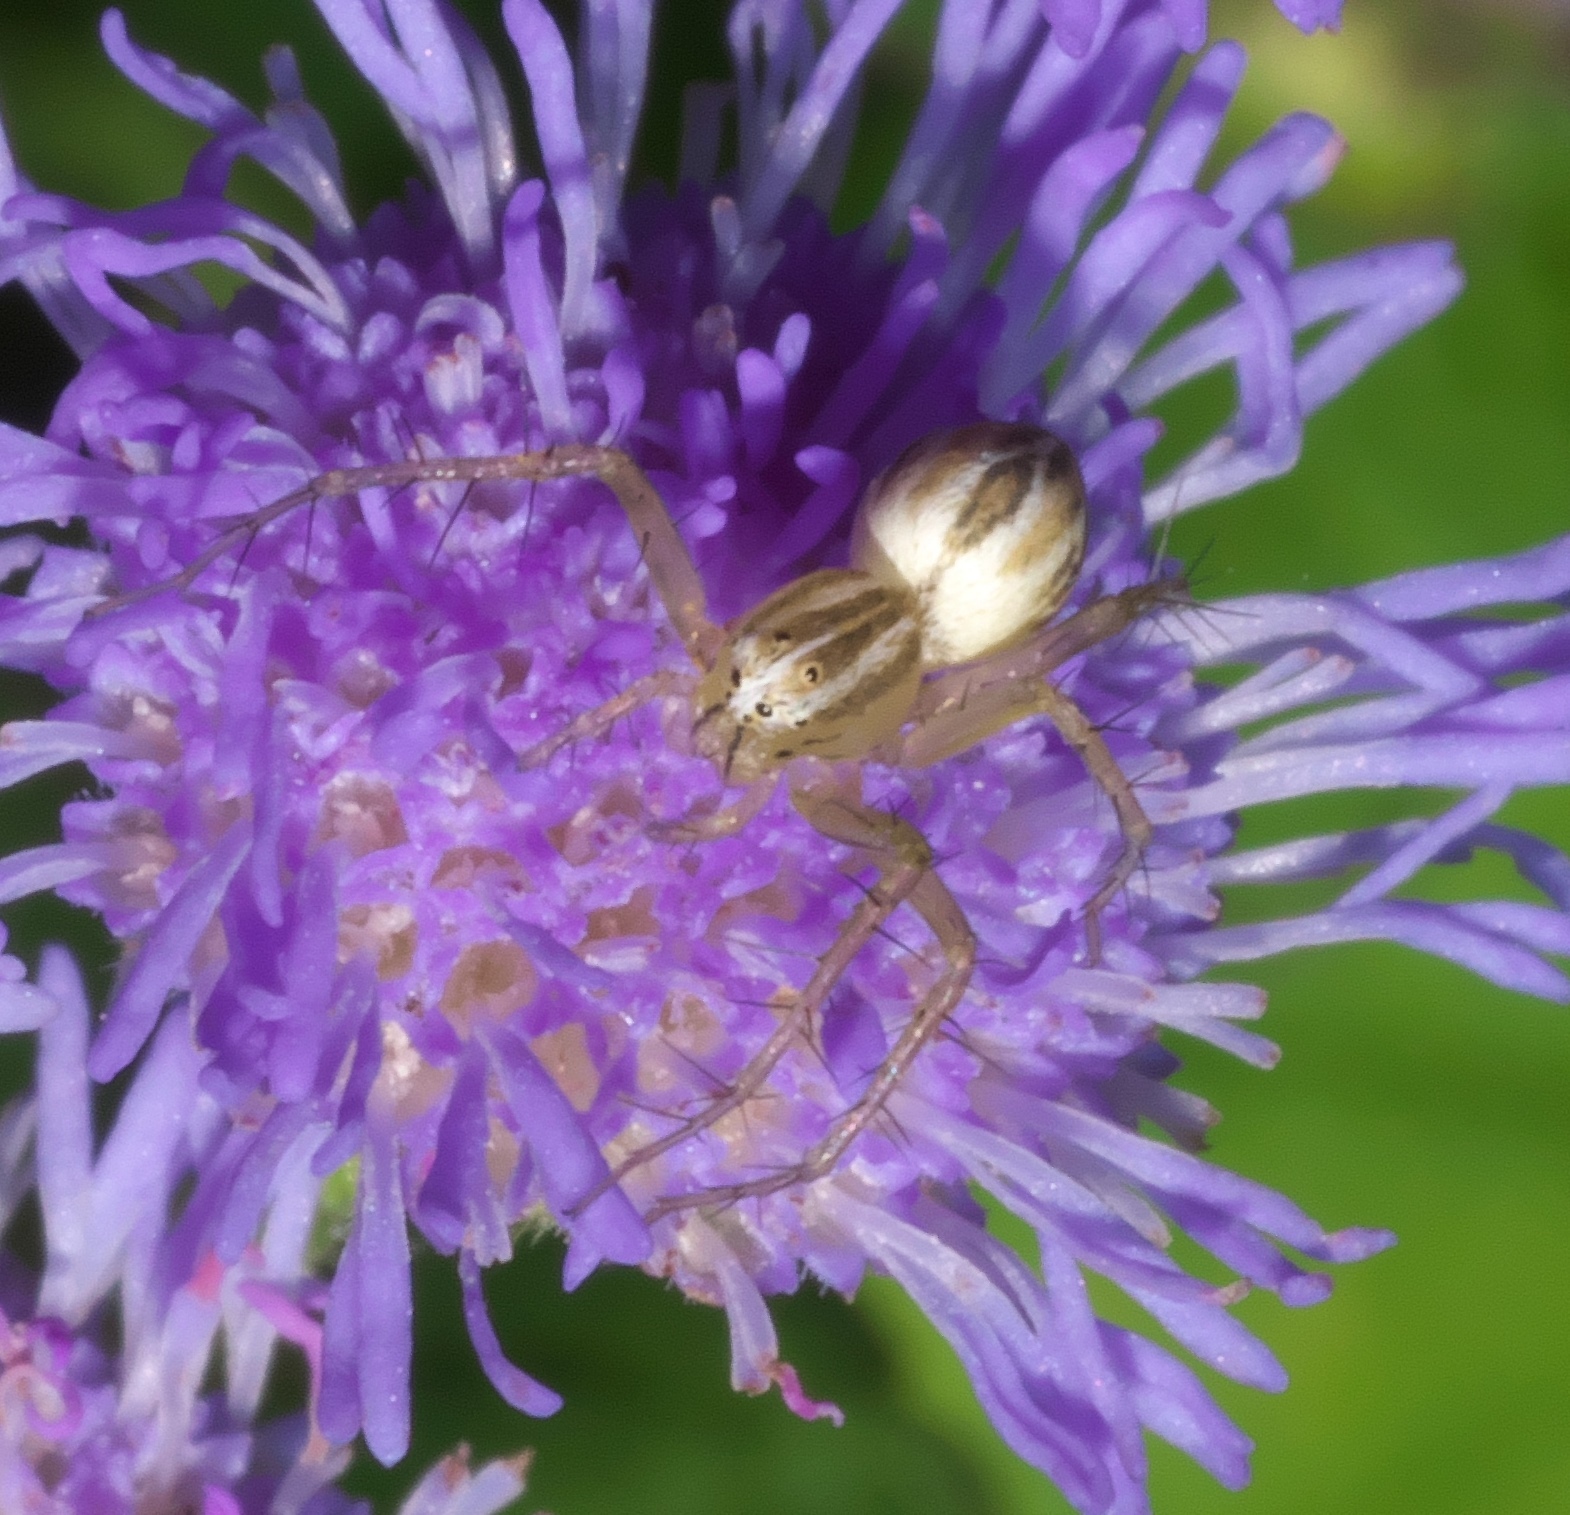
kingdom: Animalia
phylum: Arthropoda
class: Arachnida
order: Araneae
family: Oxyopidae
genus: Oxyopes
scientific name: Oxyopes salticus
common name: Lynx spiders
